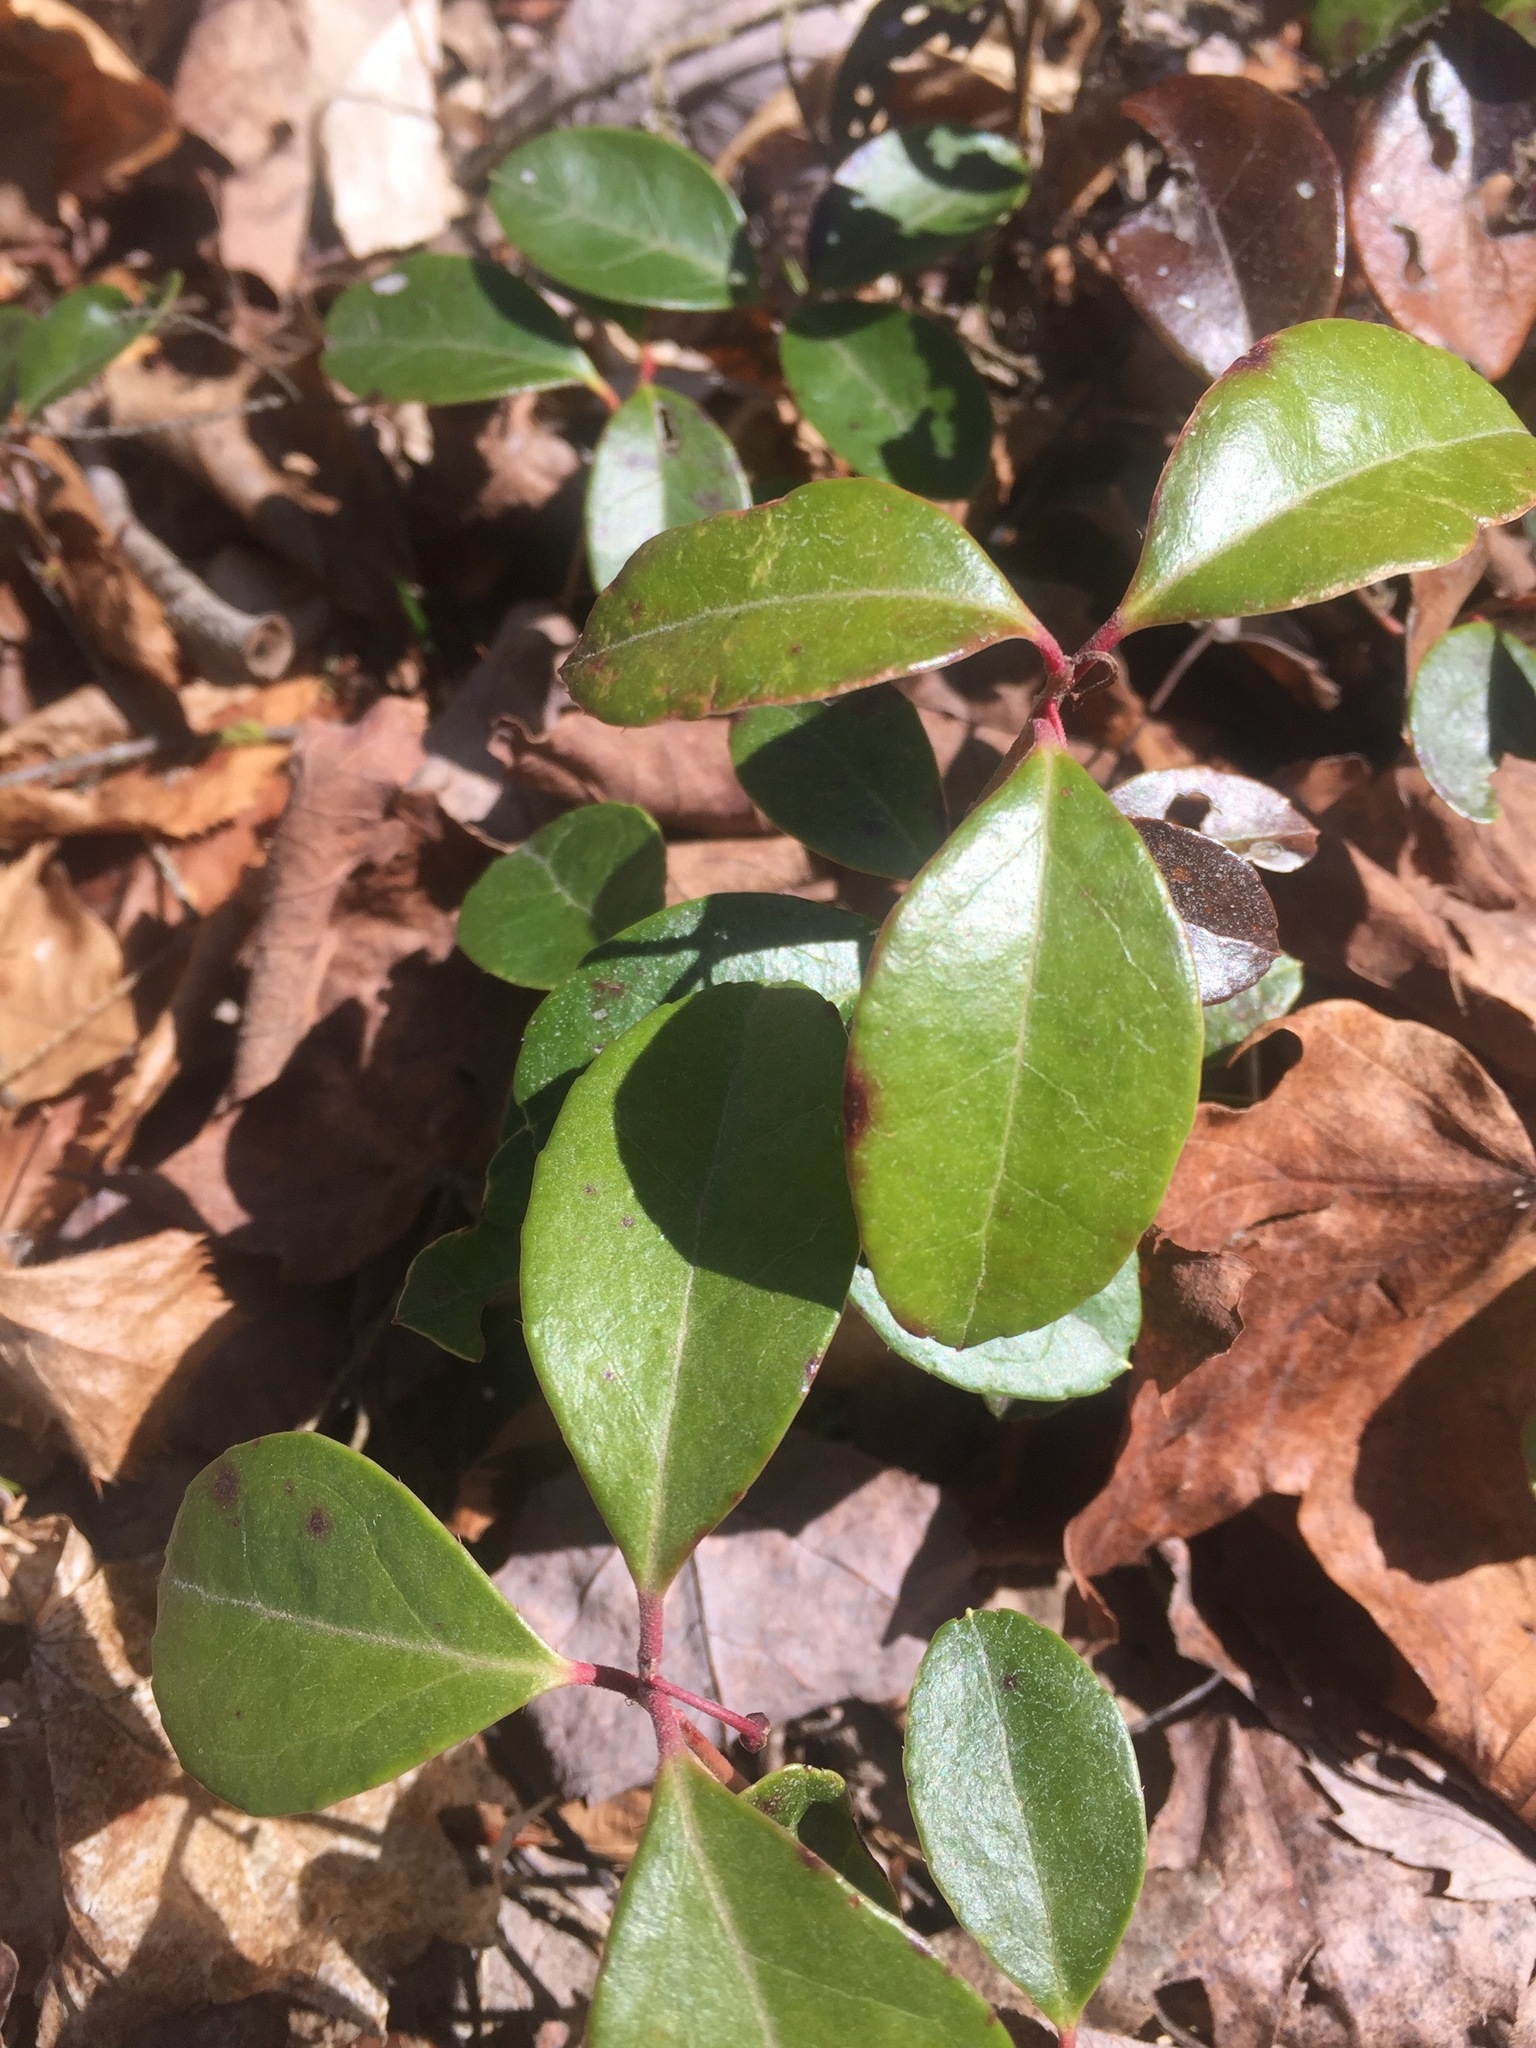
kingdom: Plantae
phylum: Tracheophyta
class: Magnoliopsida
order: Ericales
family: Ericaceae
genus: Gaultheria
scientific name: Gaultheria procumbens
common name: Checkerberry
